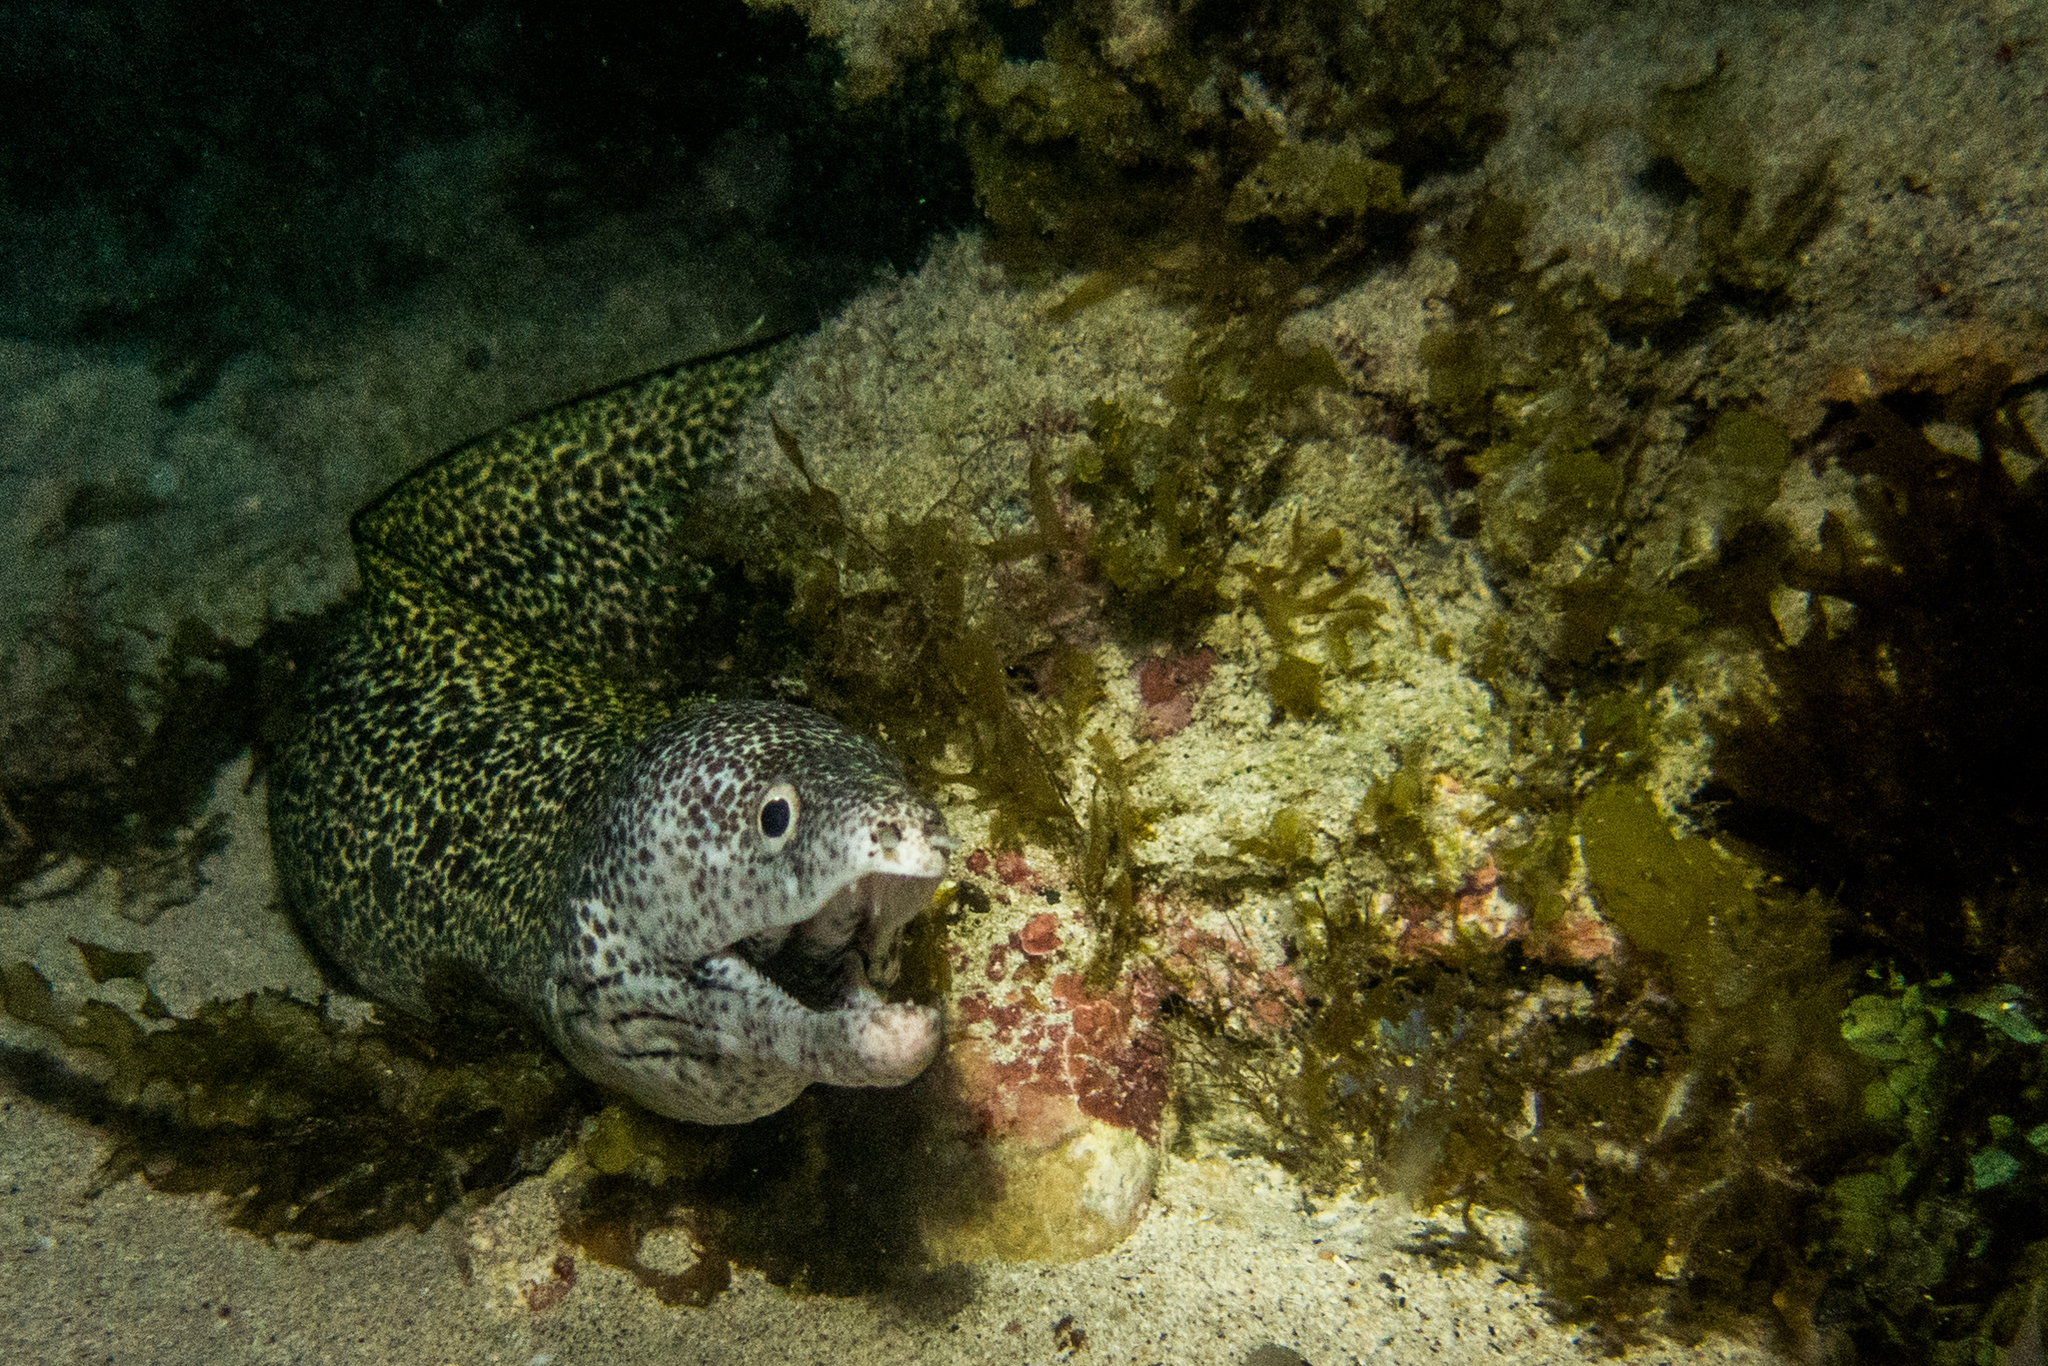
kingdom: Animalia
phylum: Chordata
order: Anguilliformes
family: Muraenidae
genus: Gymnothorax
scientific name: Gymnothorax moringa
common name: Spotted moray
